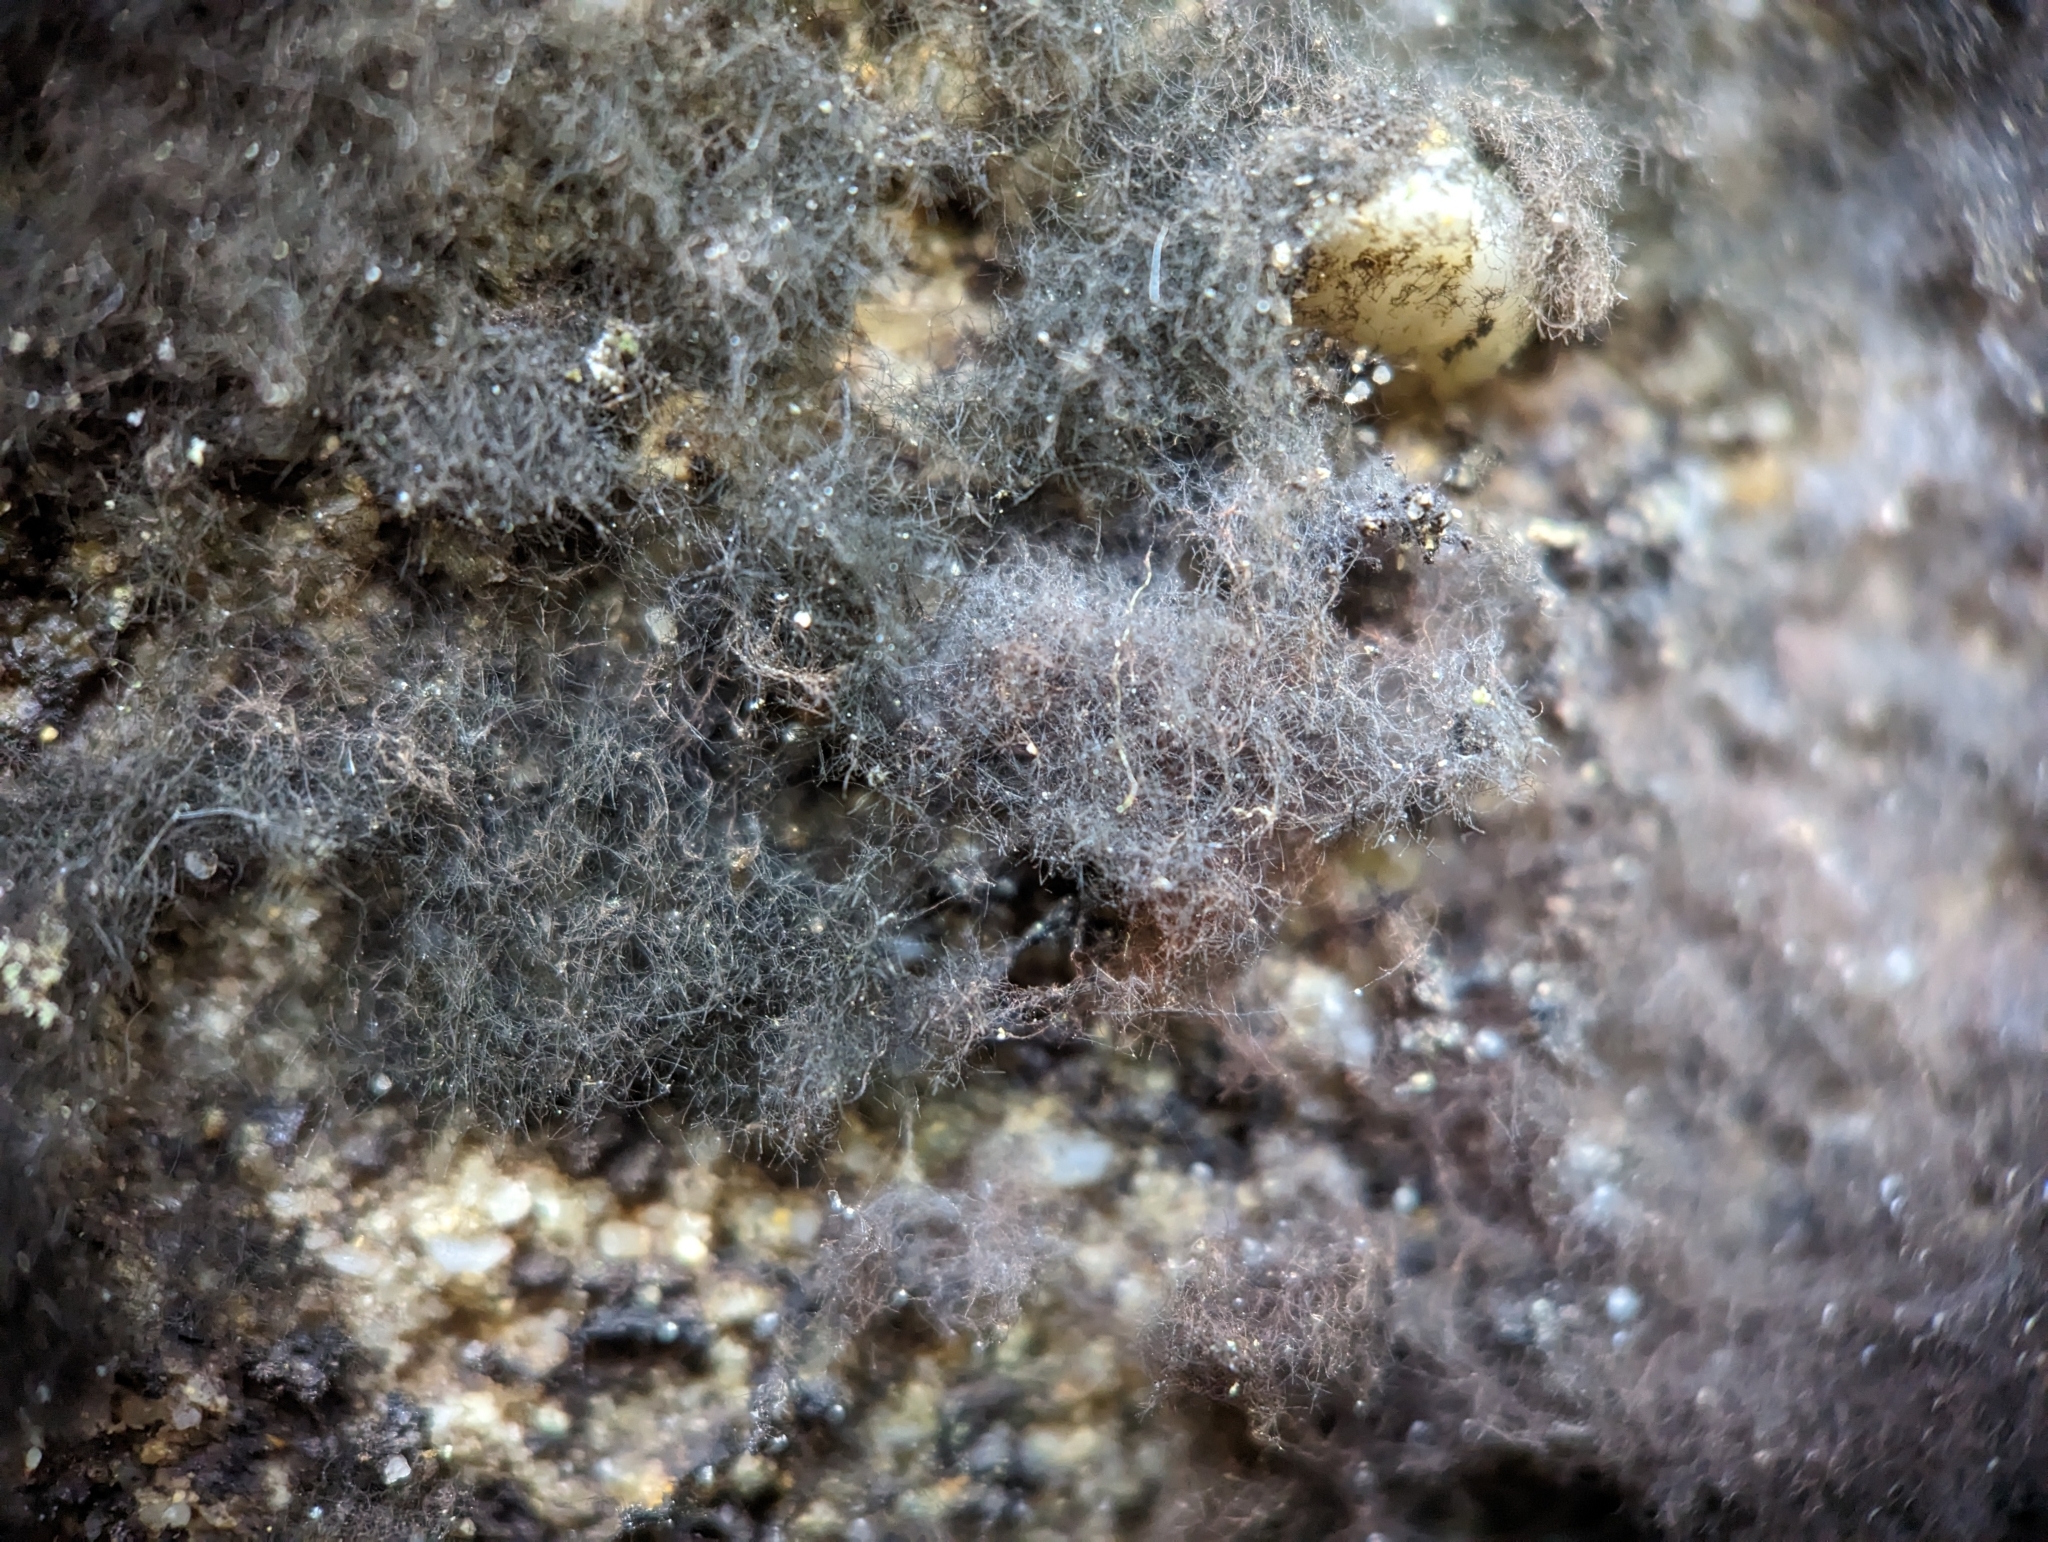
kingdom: Fungi
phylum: Ascomycota
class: Eurotiomycetes
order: Chaetothyriales
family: Herpotrichiellaceae
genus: Rhacodiopsis
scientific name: Rhacodiopsis rupestris
